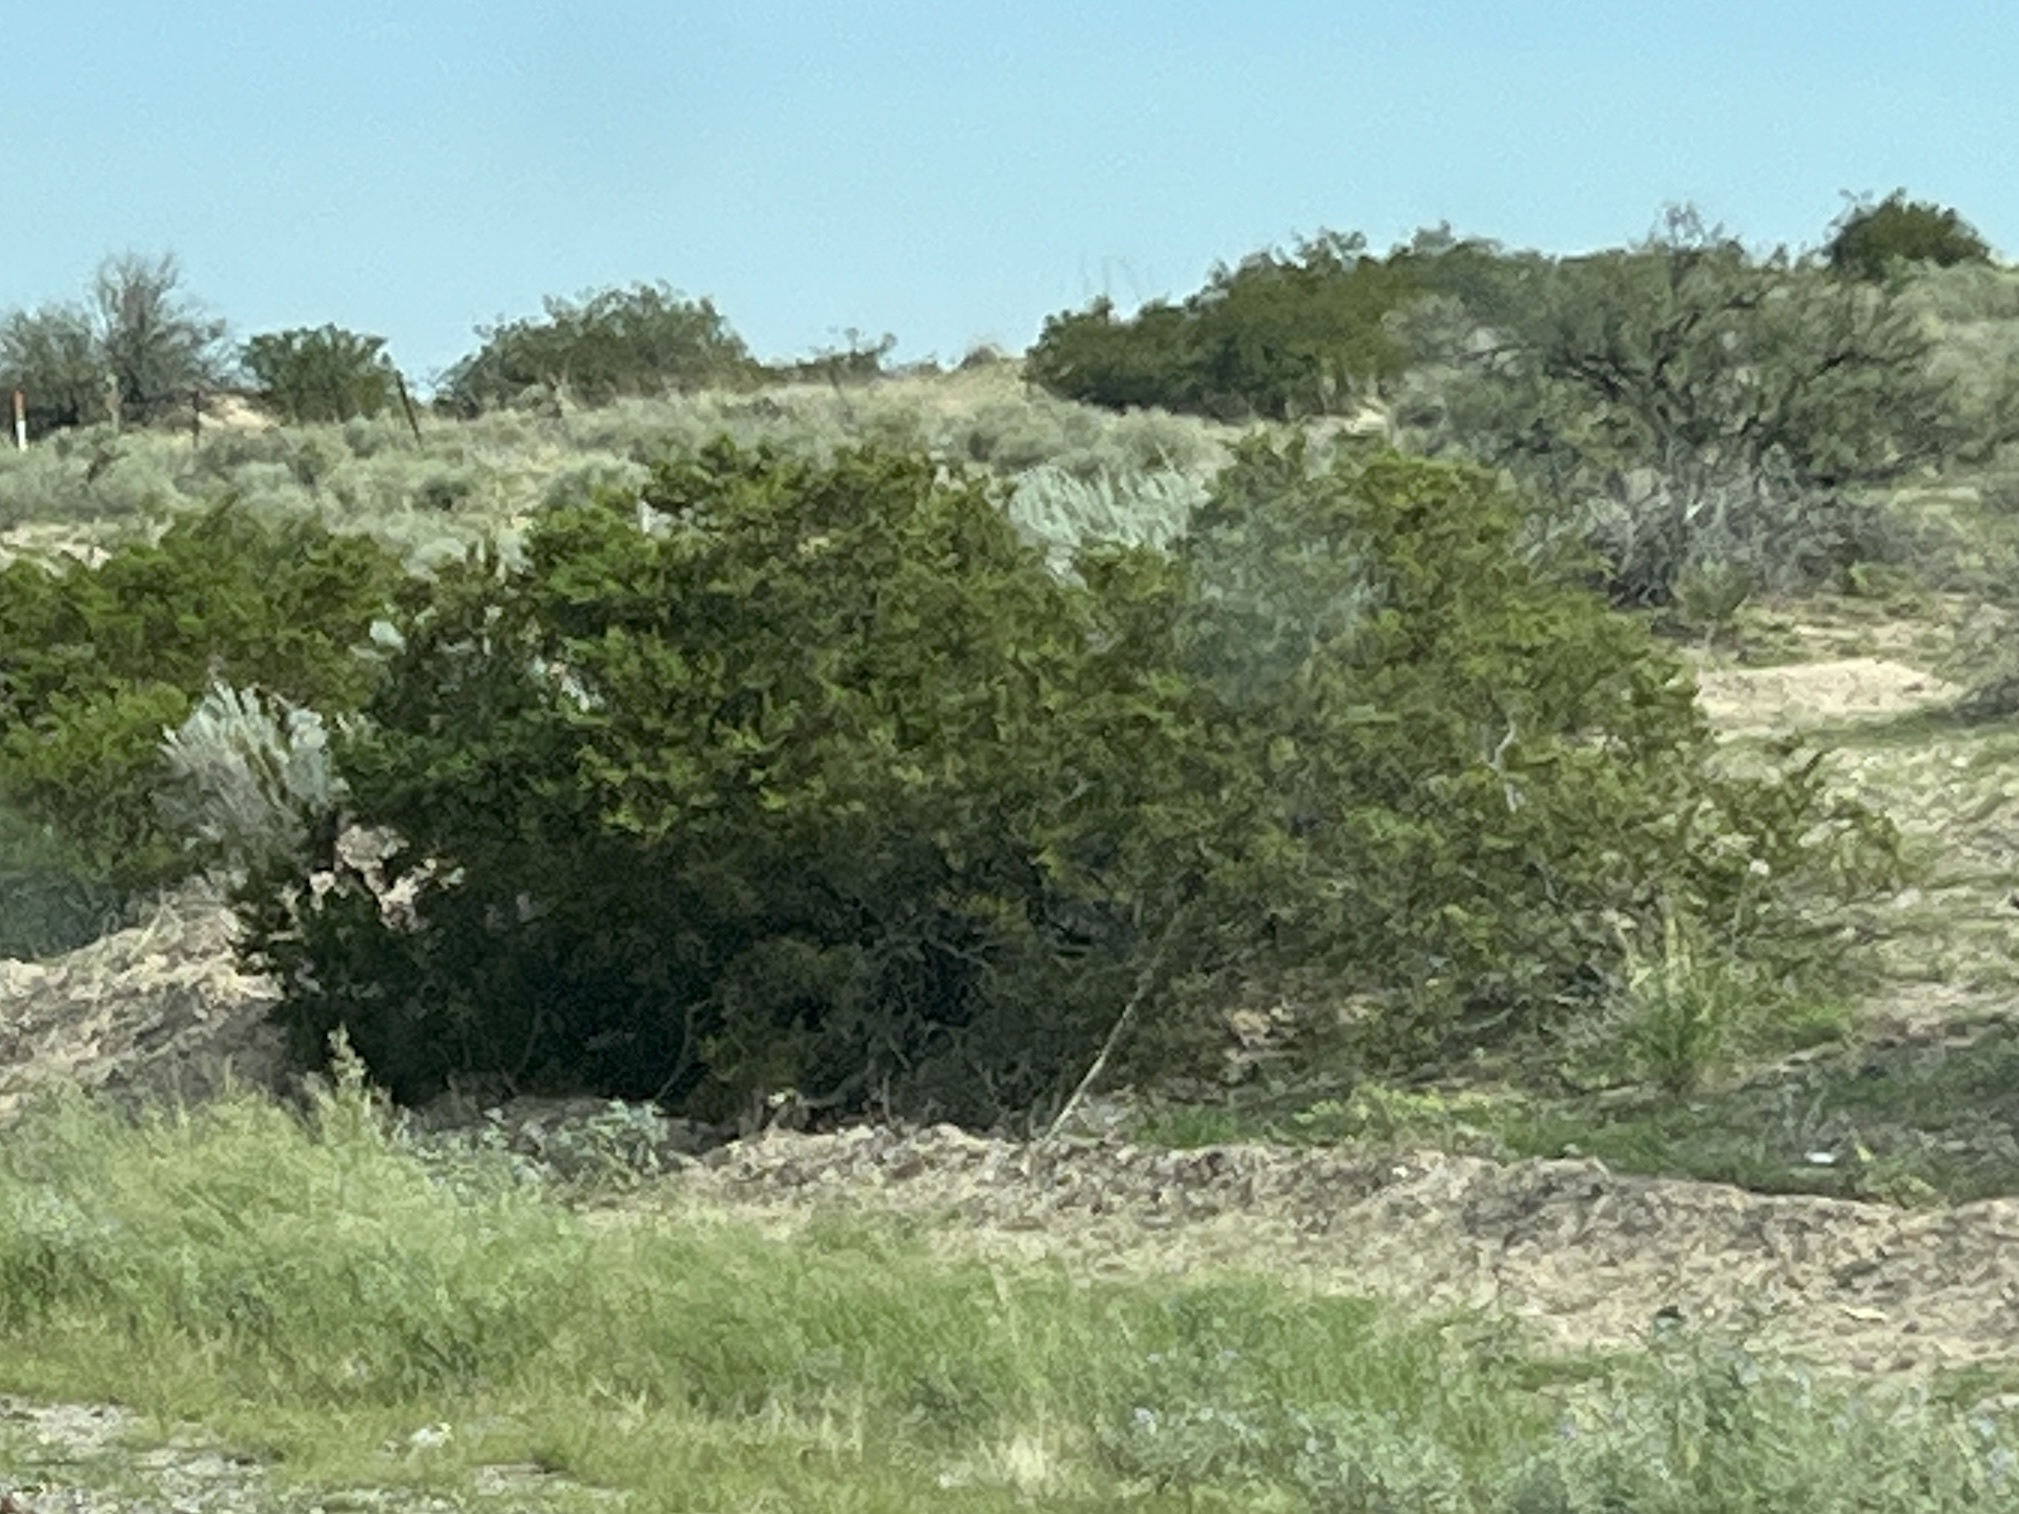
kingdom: Plantae
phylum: Tracheophyta
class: Magnoliopsida
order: Zygophyllales
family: Zygophyllaceae
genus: Larrea
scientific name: Larrea tridentata
